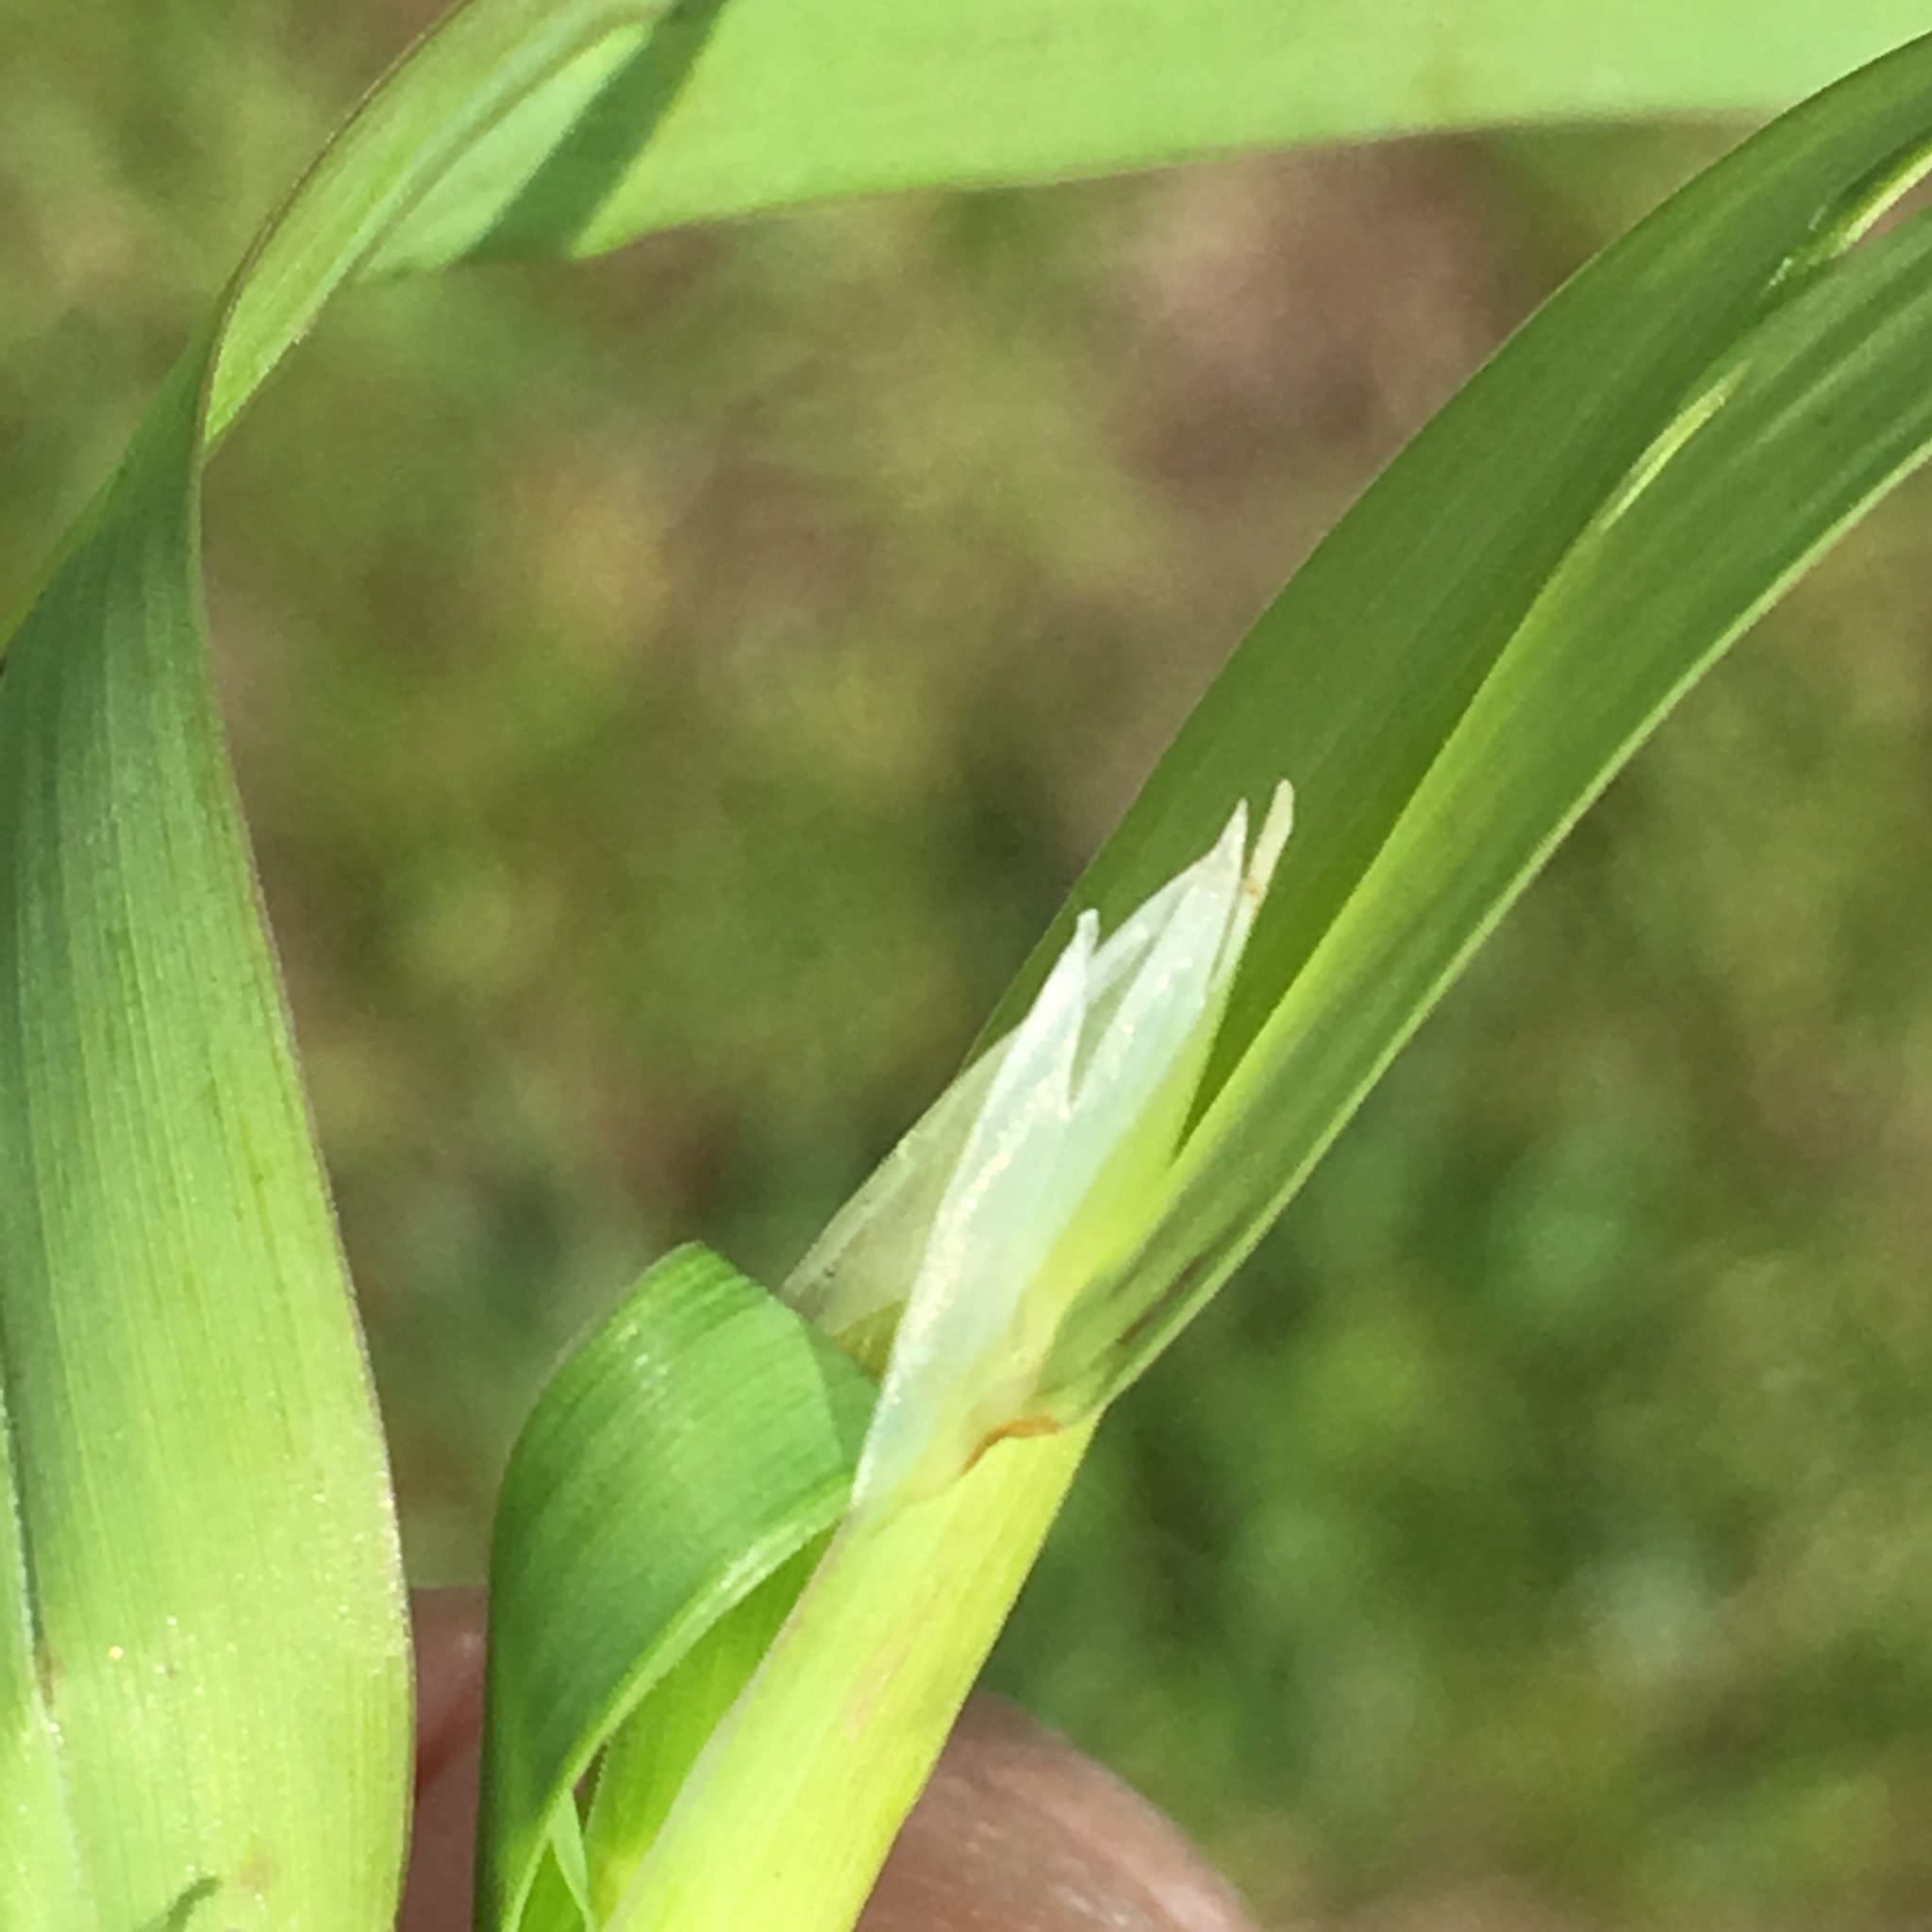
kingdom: Plantae
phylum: Tracheophyta
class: Liliopsida
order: Poales
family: Poaceae
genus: Dactylis
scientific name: Dactylis glomerata
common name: Orchardgrass
